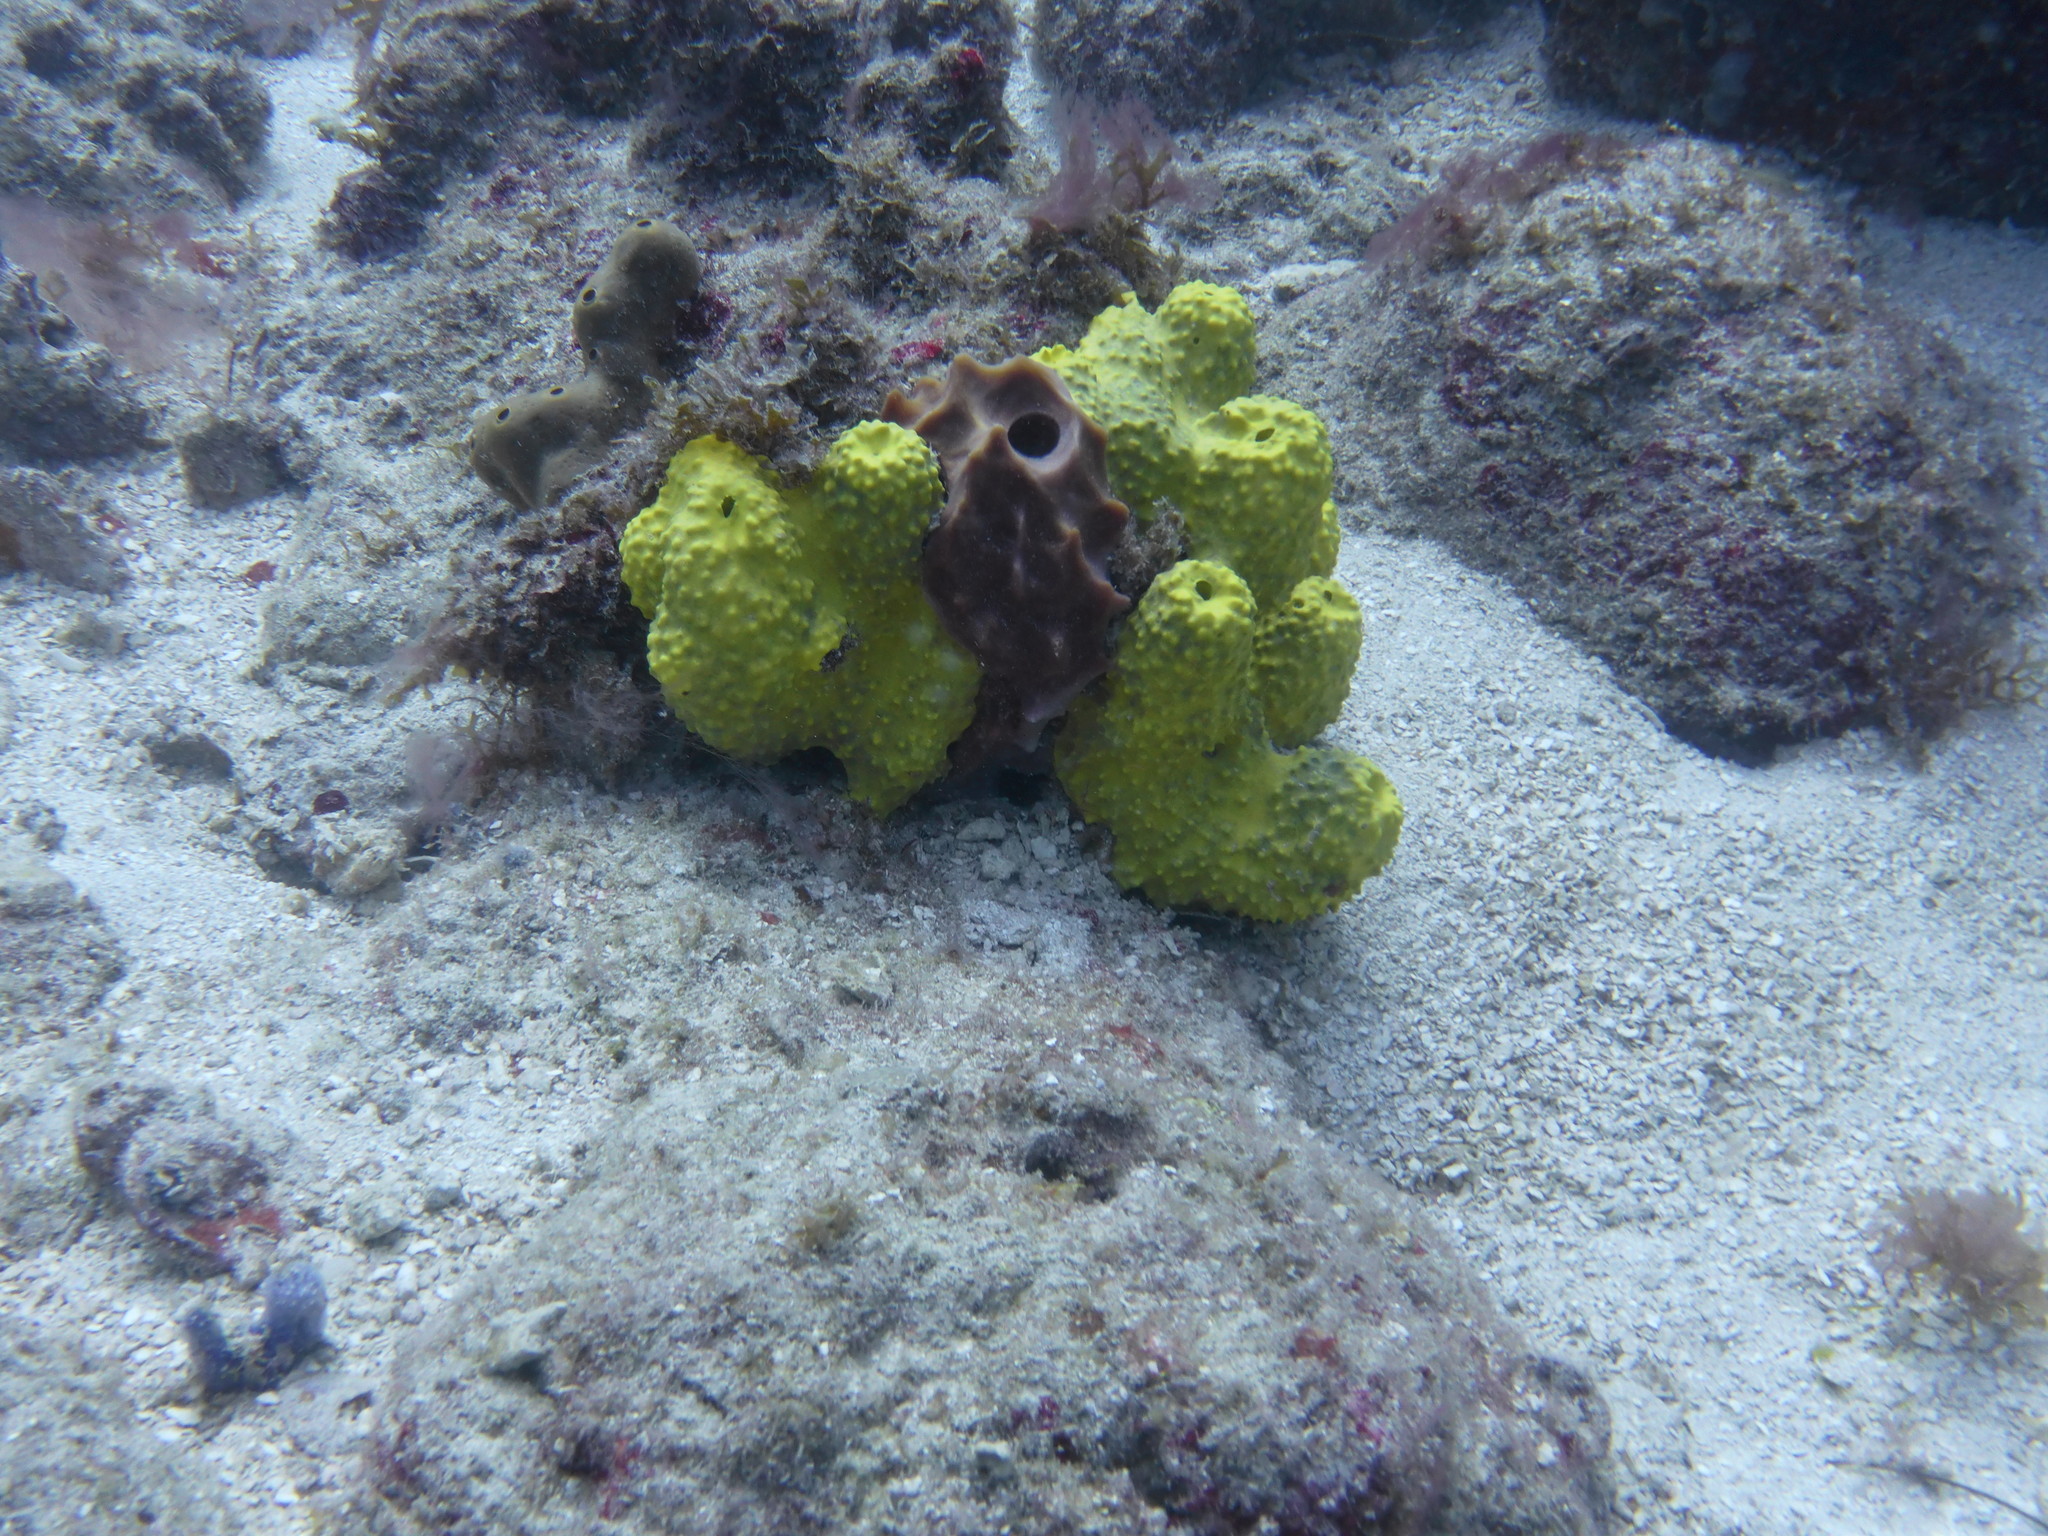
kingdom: Animalia
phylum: Porifera
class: Demospongiae
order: Verongiida
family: Aplysinidae
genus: Aiolochroia
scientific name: Aiolochroia crassa
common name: Branching tube sponge
